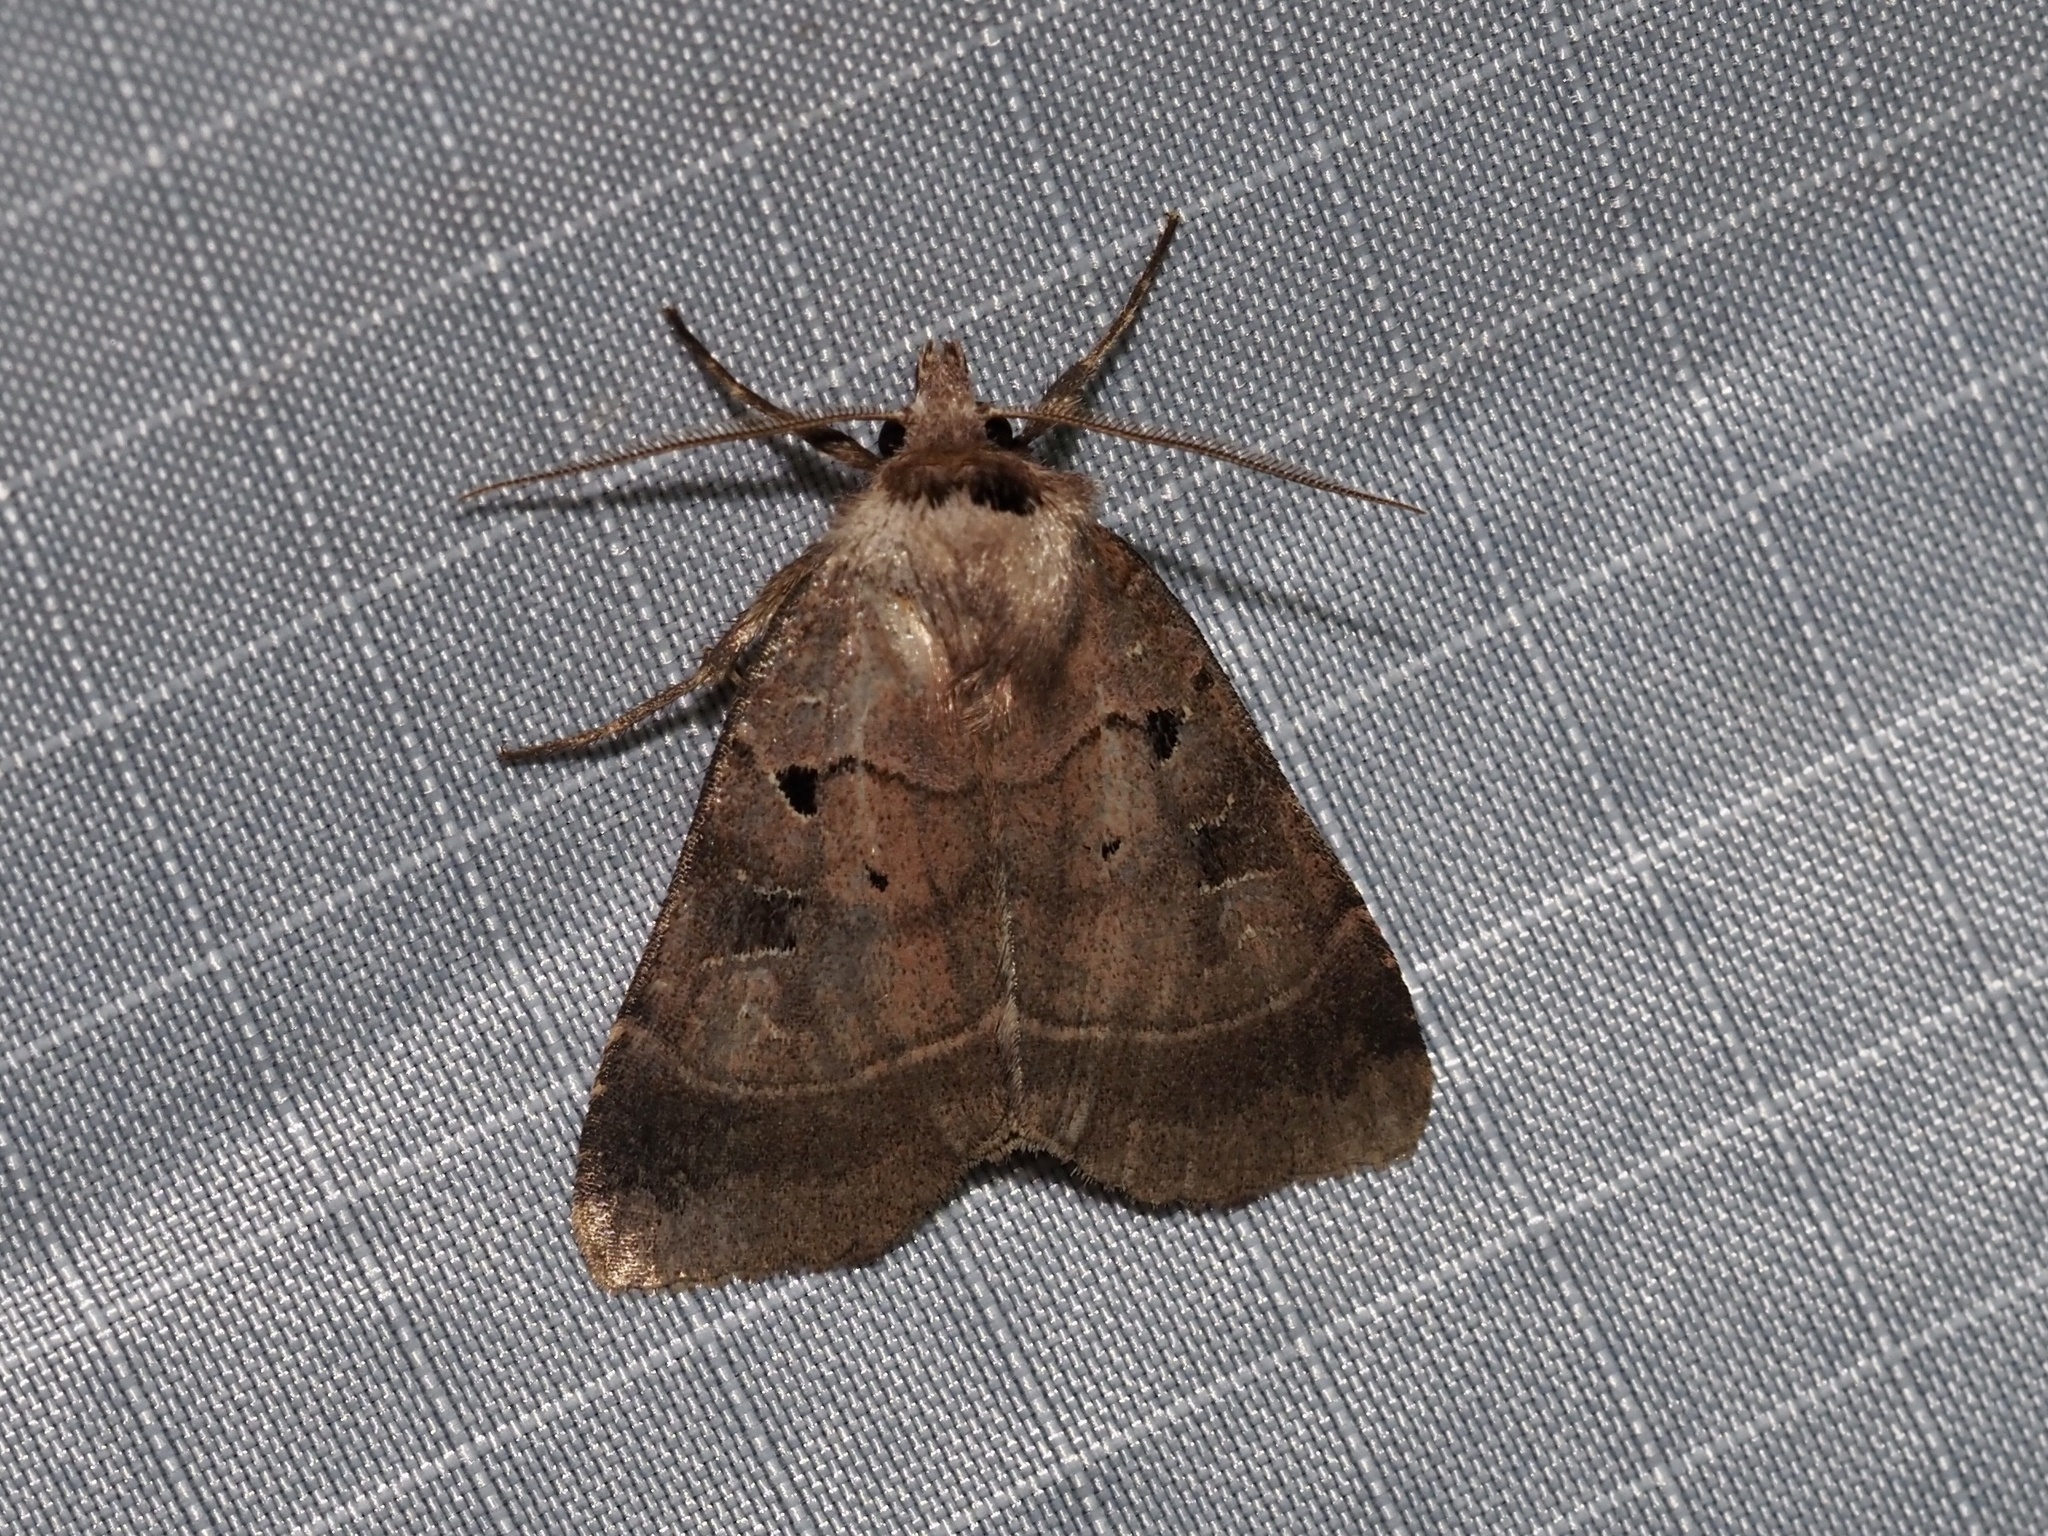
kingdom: Animalia
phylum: Arthropoda
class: Insecta
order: Lepidoptera
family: Noctuidae
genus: Agnorisma
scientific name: Agnorisma badinodis
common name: Pale-banded dart
